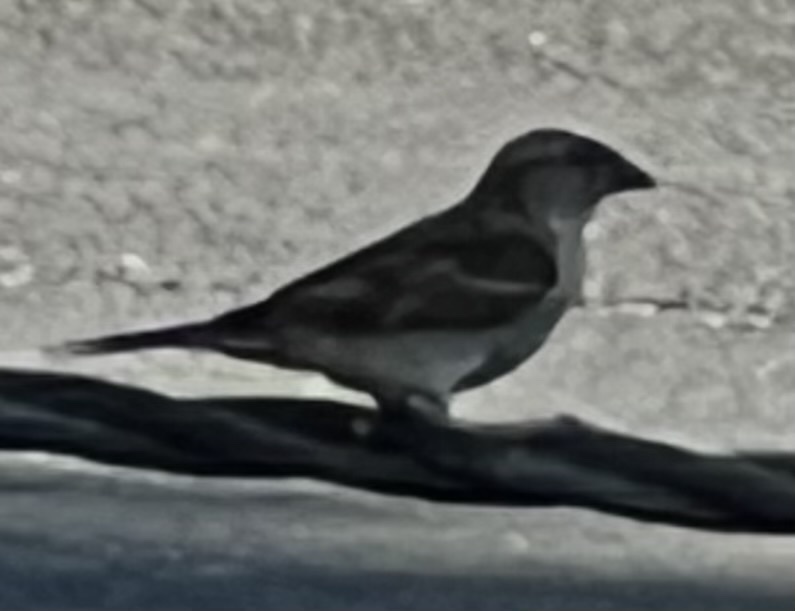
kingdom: Animalia
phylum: Chordata
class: Aves
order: Passeriformes
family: Passeridae
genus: Passer
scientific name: Passer domesticus
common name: House sparrow
